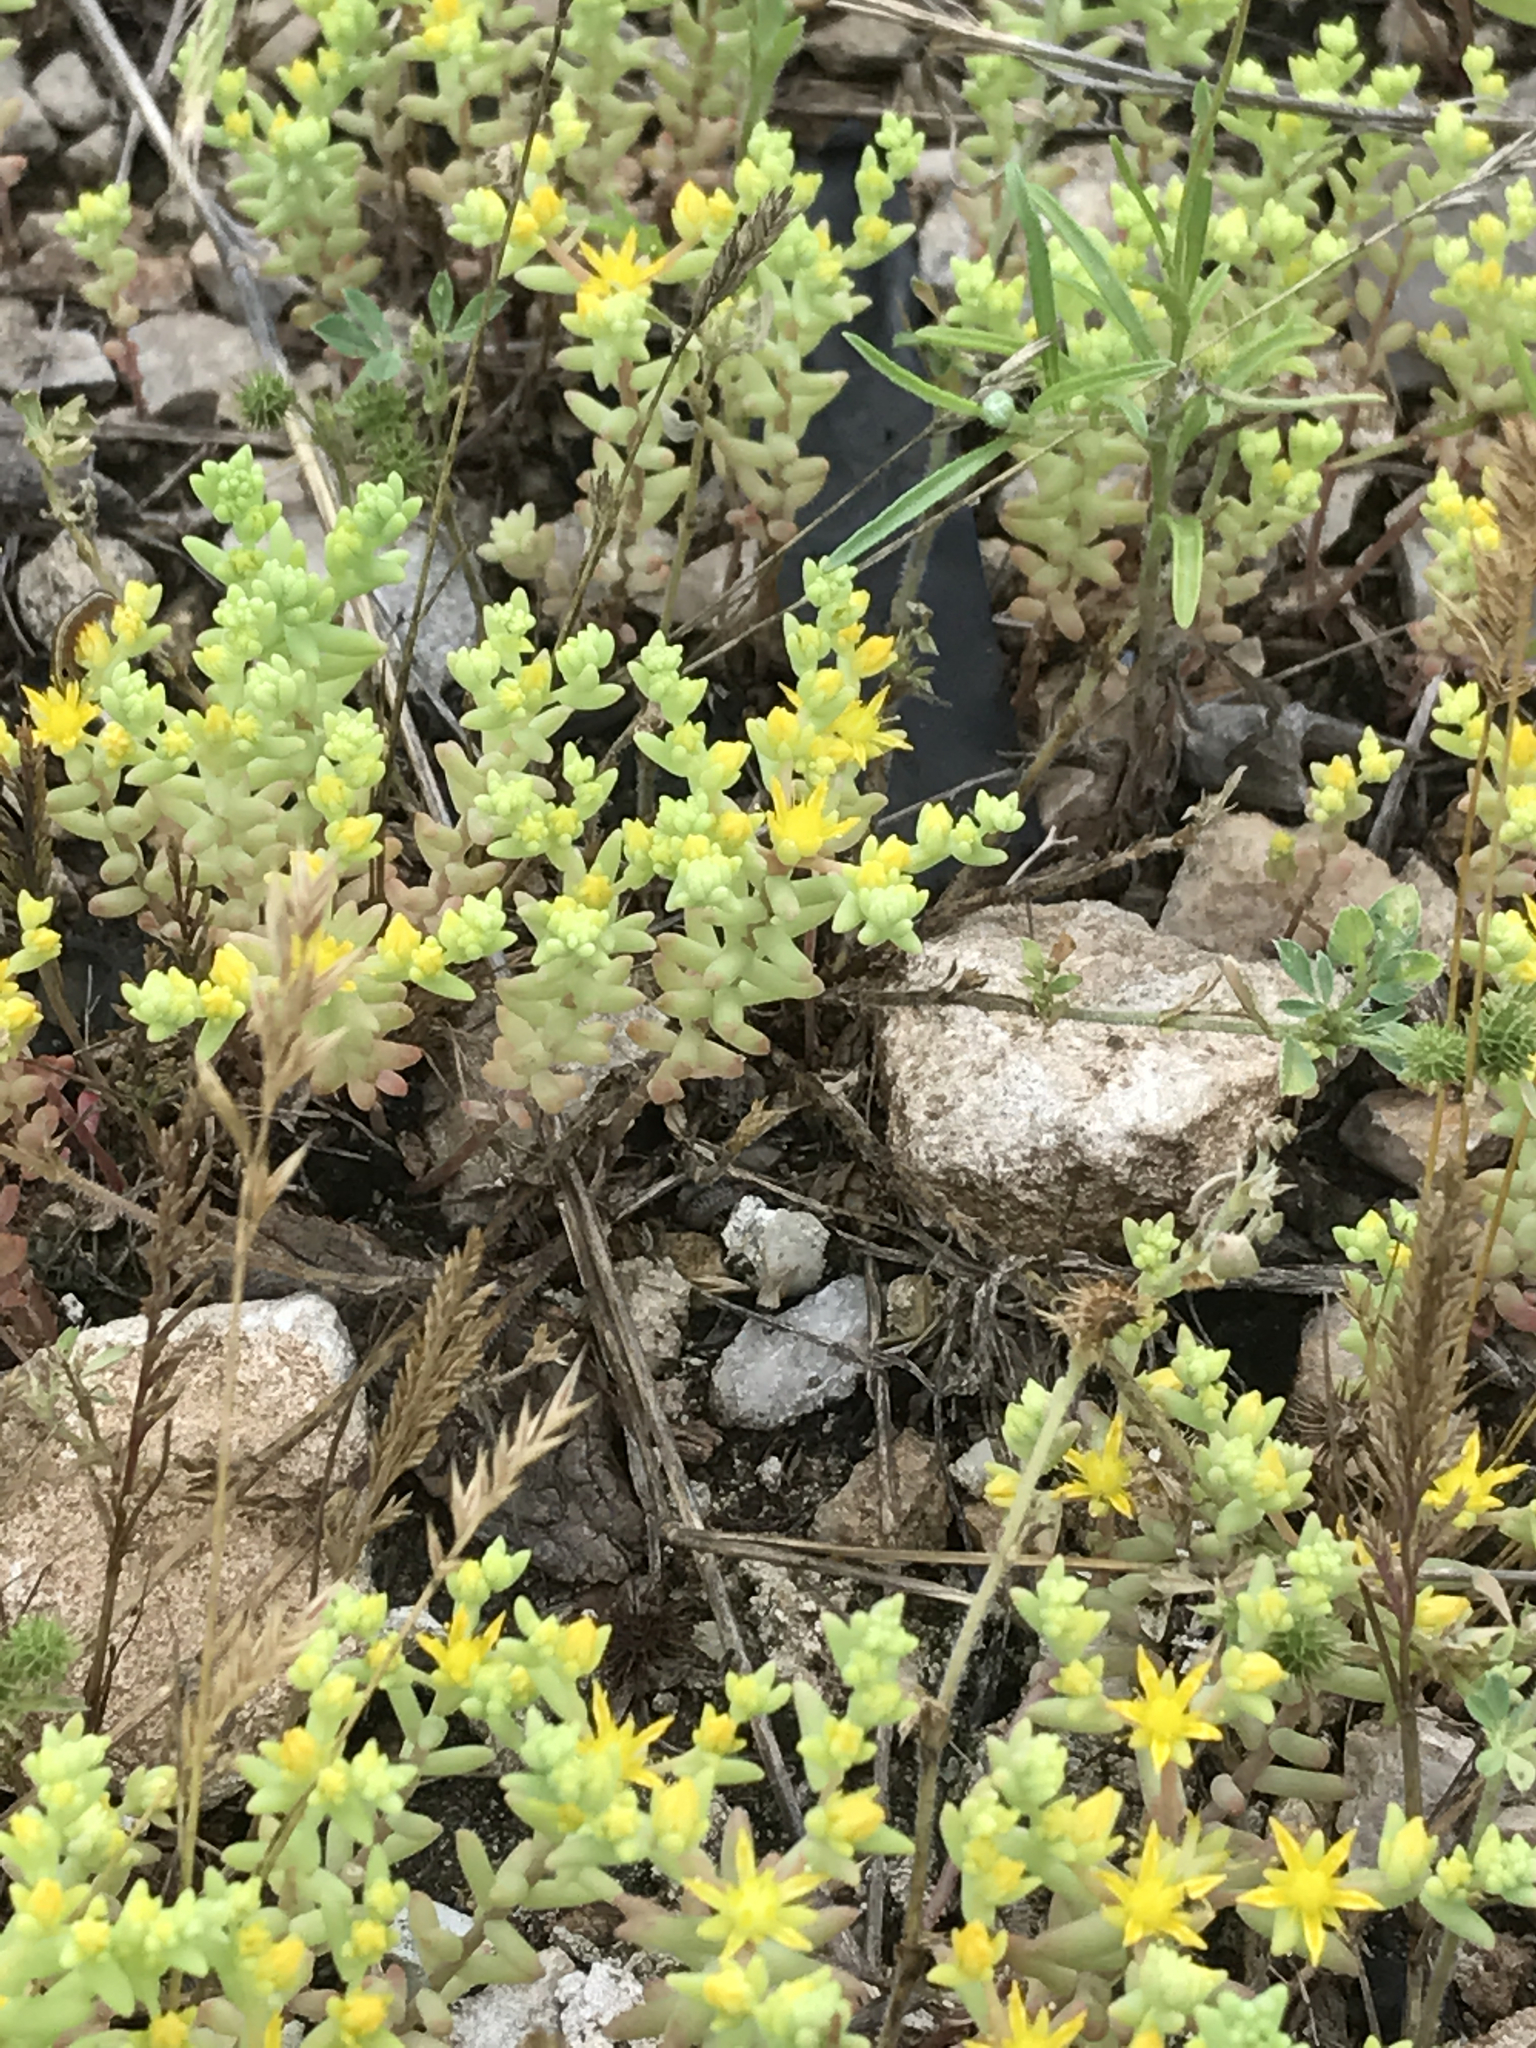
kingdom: Plantae
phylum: Tracheophyta
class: Magnoliopsida
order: Saxifragales
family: Crassulaceae
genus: Sedum
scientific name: Sedum nuttallii
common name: Yellow stonecrop
